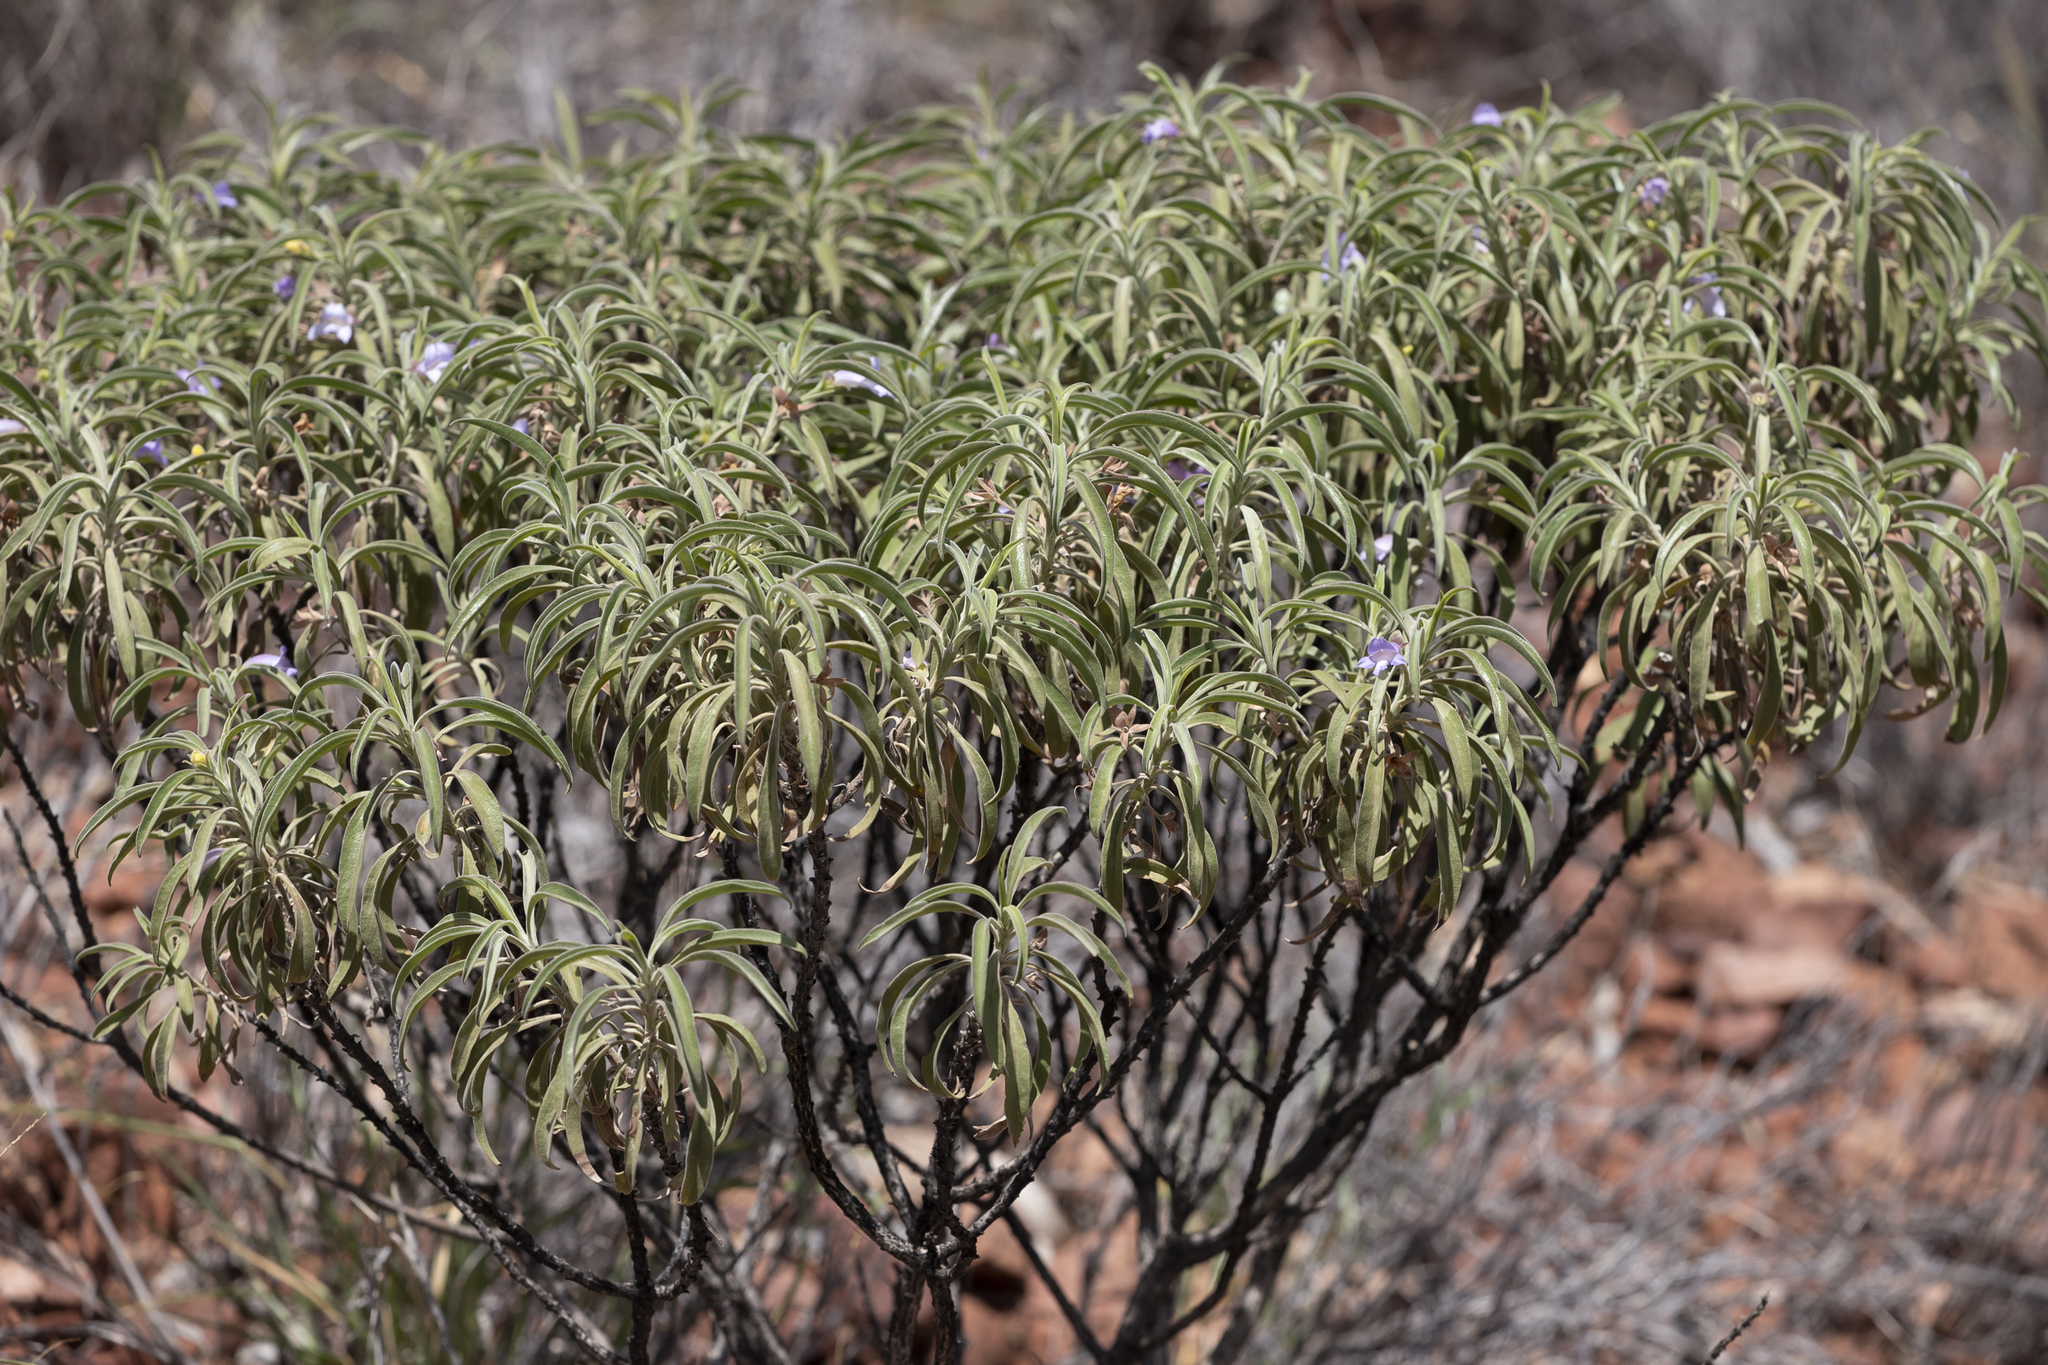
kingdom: Plantae
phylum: Tracheophyta
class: Magnoliopsida
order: Lamiales
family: Scrophulariaceae
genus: Eremophila
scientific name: Eremophila freelingii
